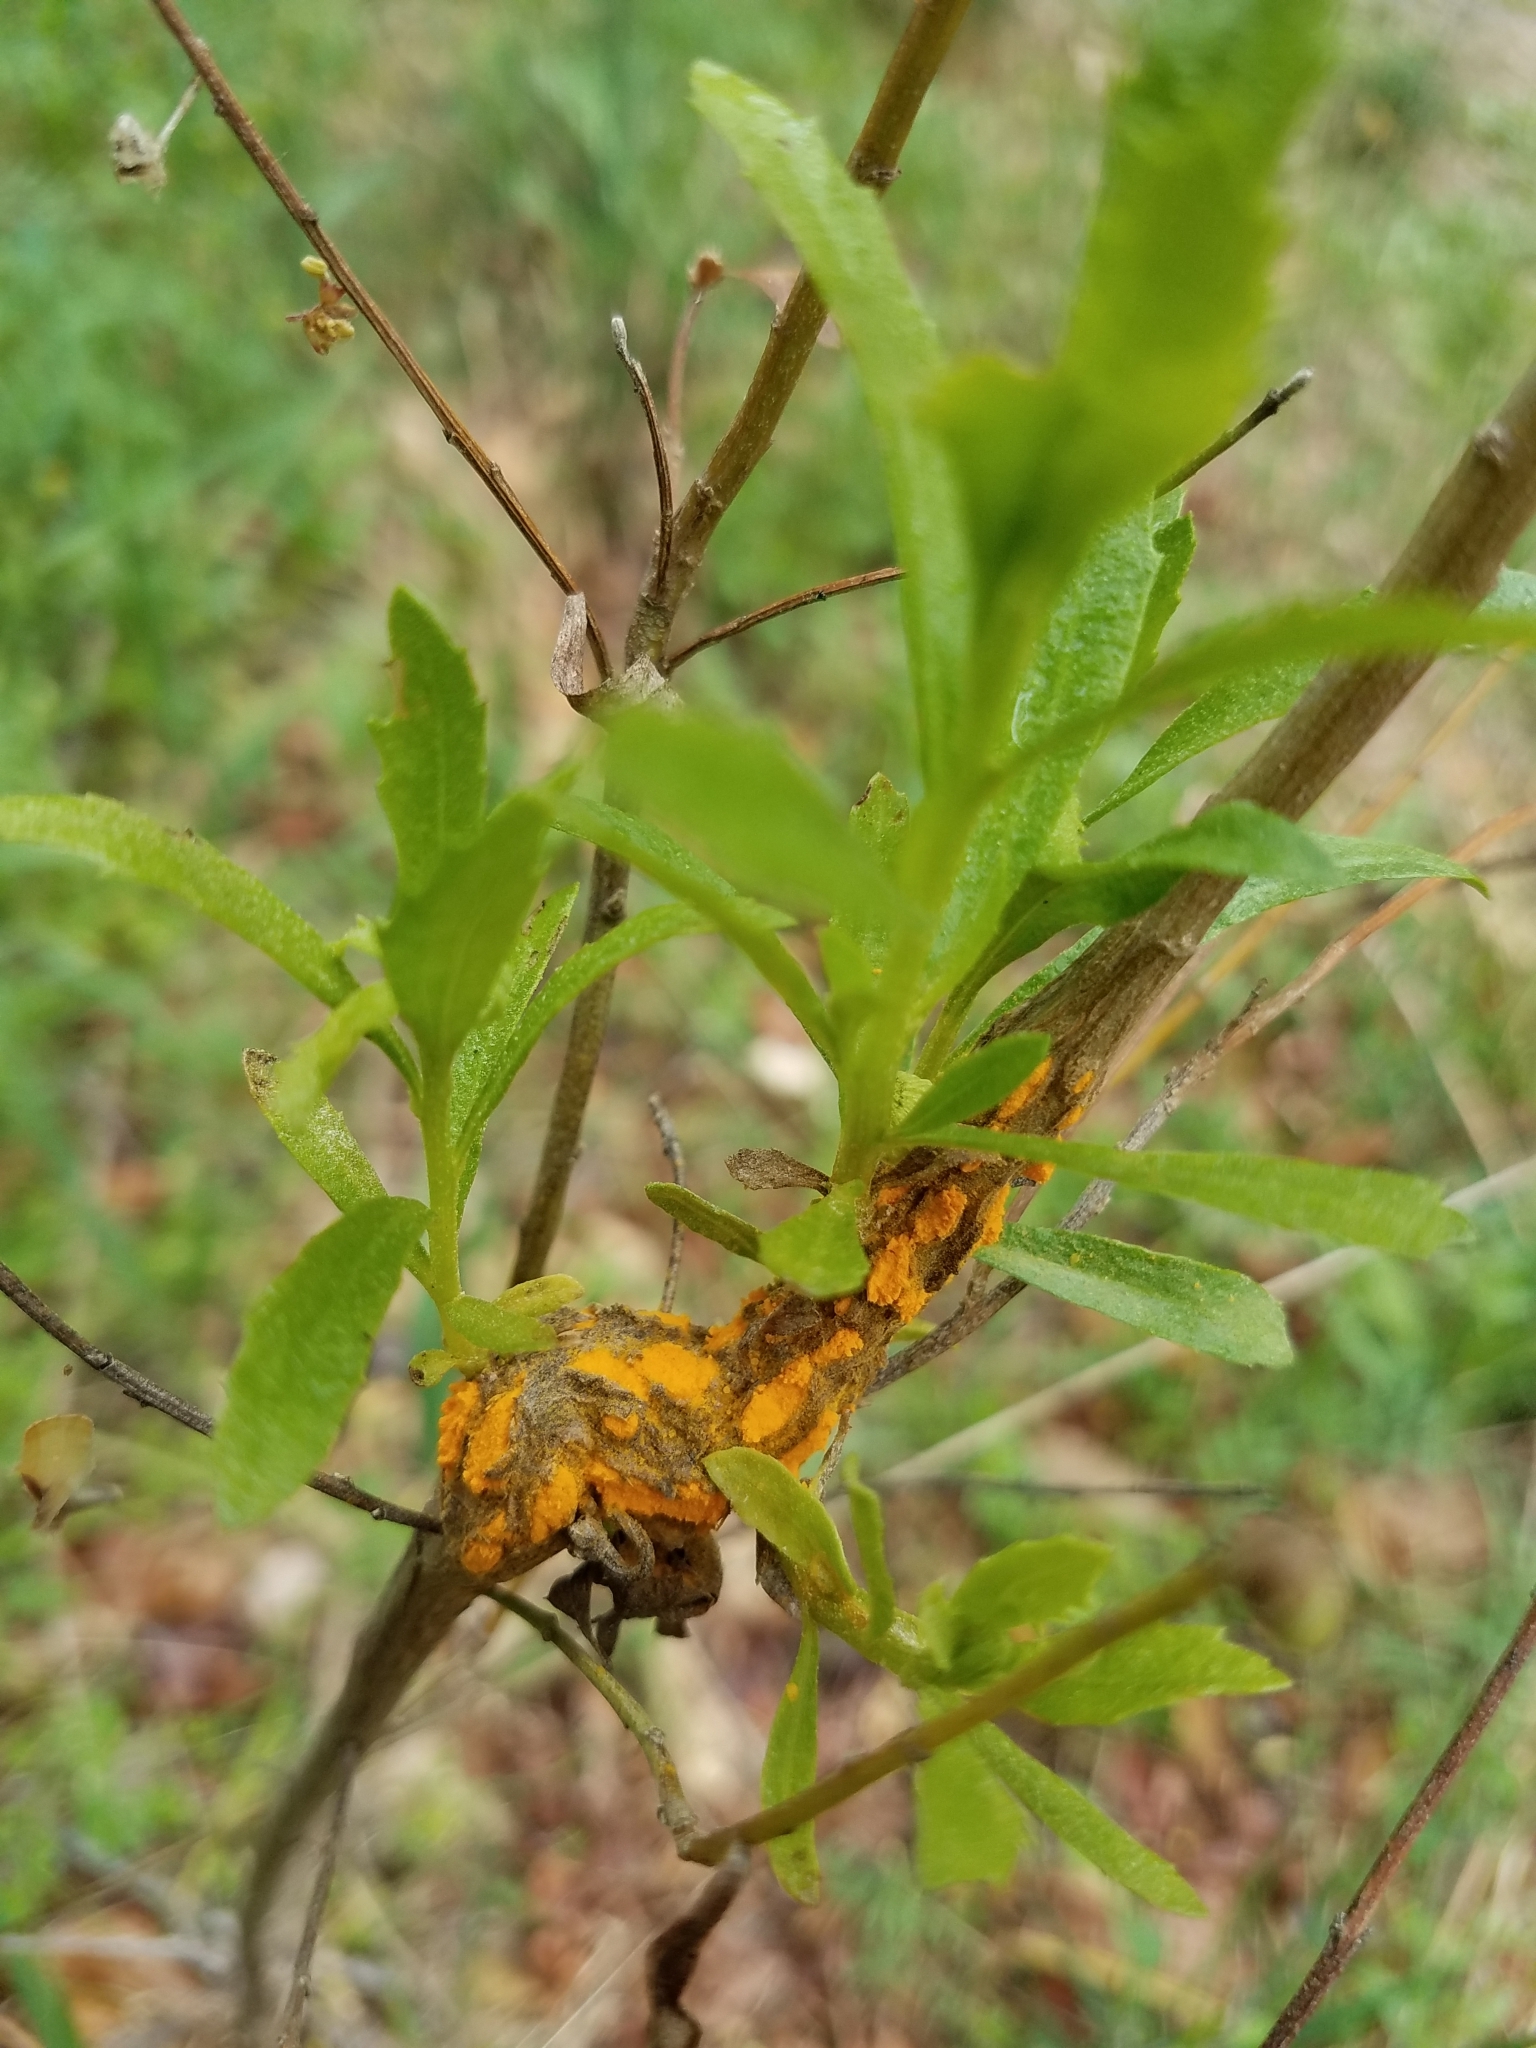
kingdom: Fungi
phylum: Basidiomycota
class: Pucciniomycetes
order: Pucciniales
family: Pucciniaceae
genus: Eriosporangium
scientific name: Eriosporangium evadens
